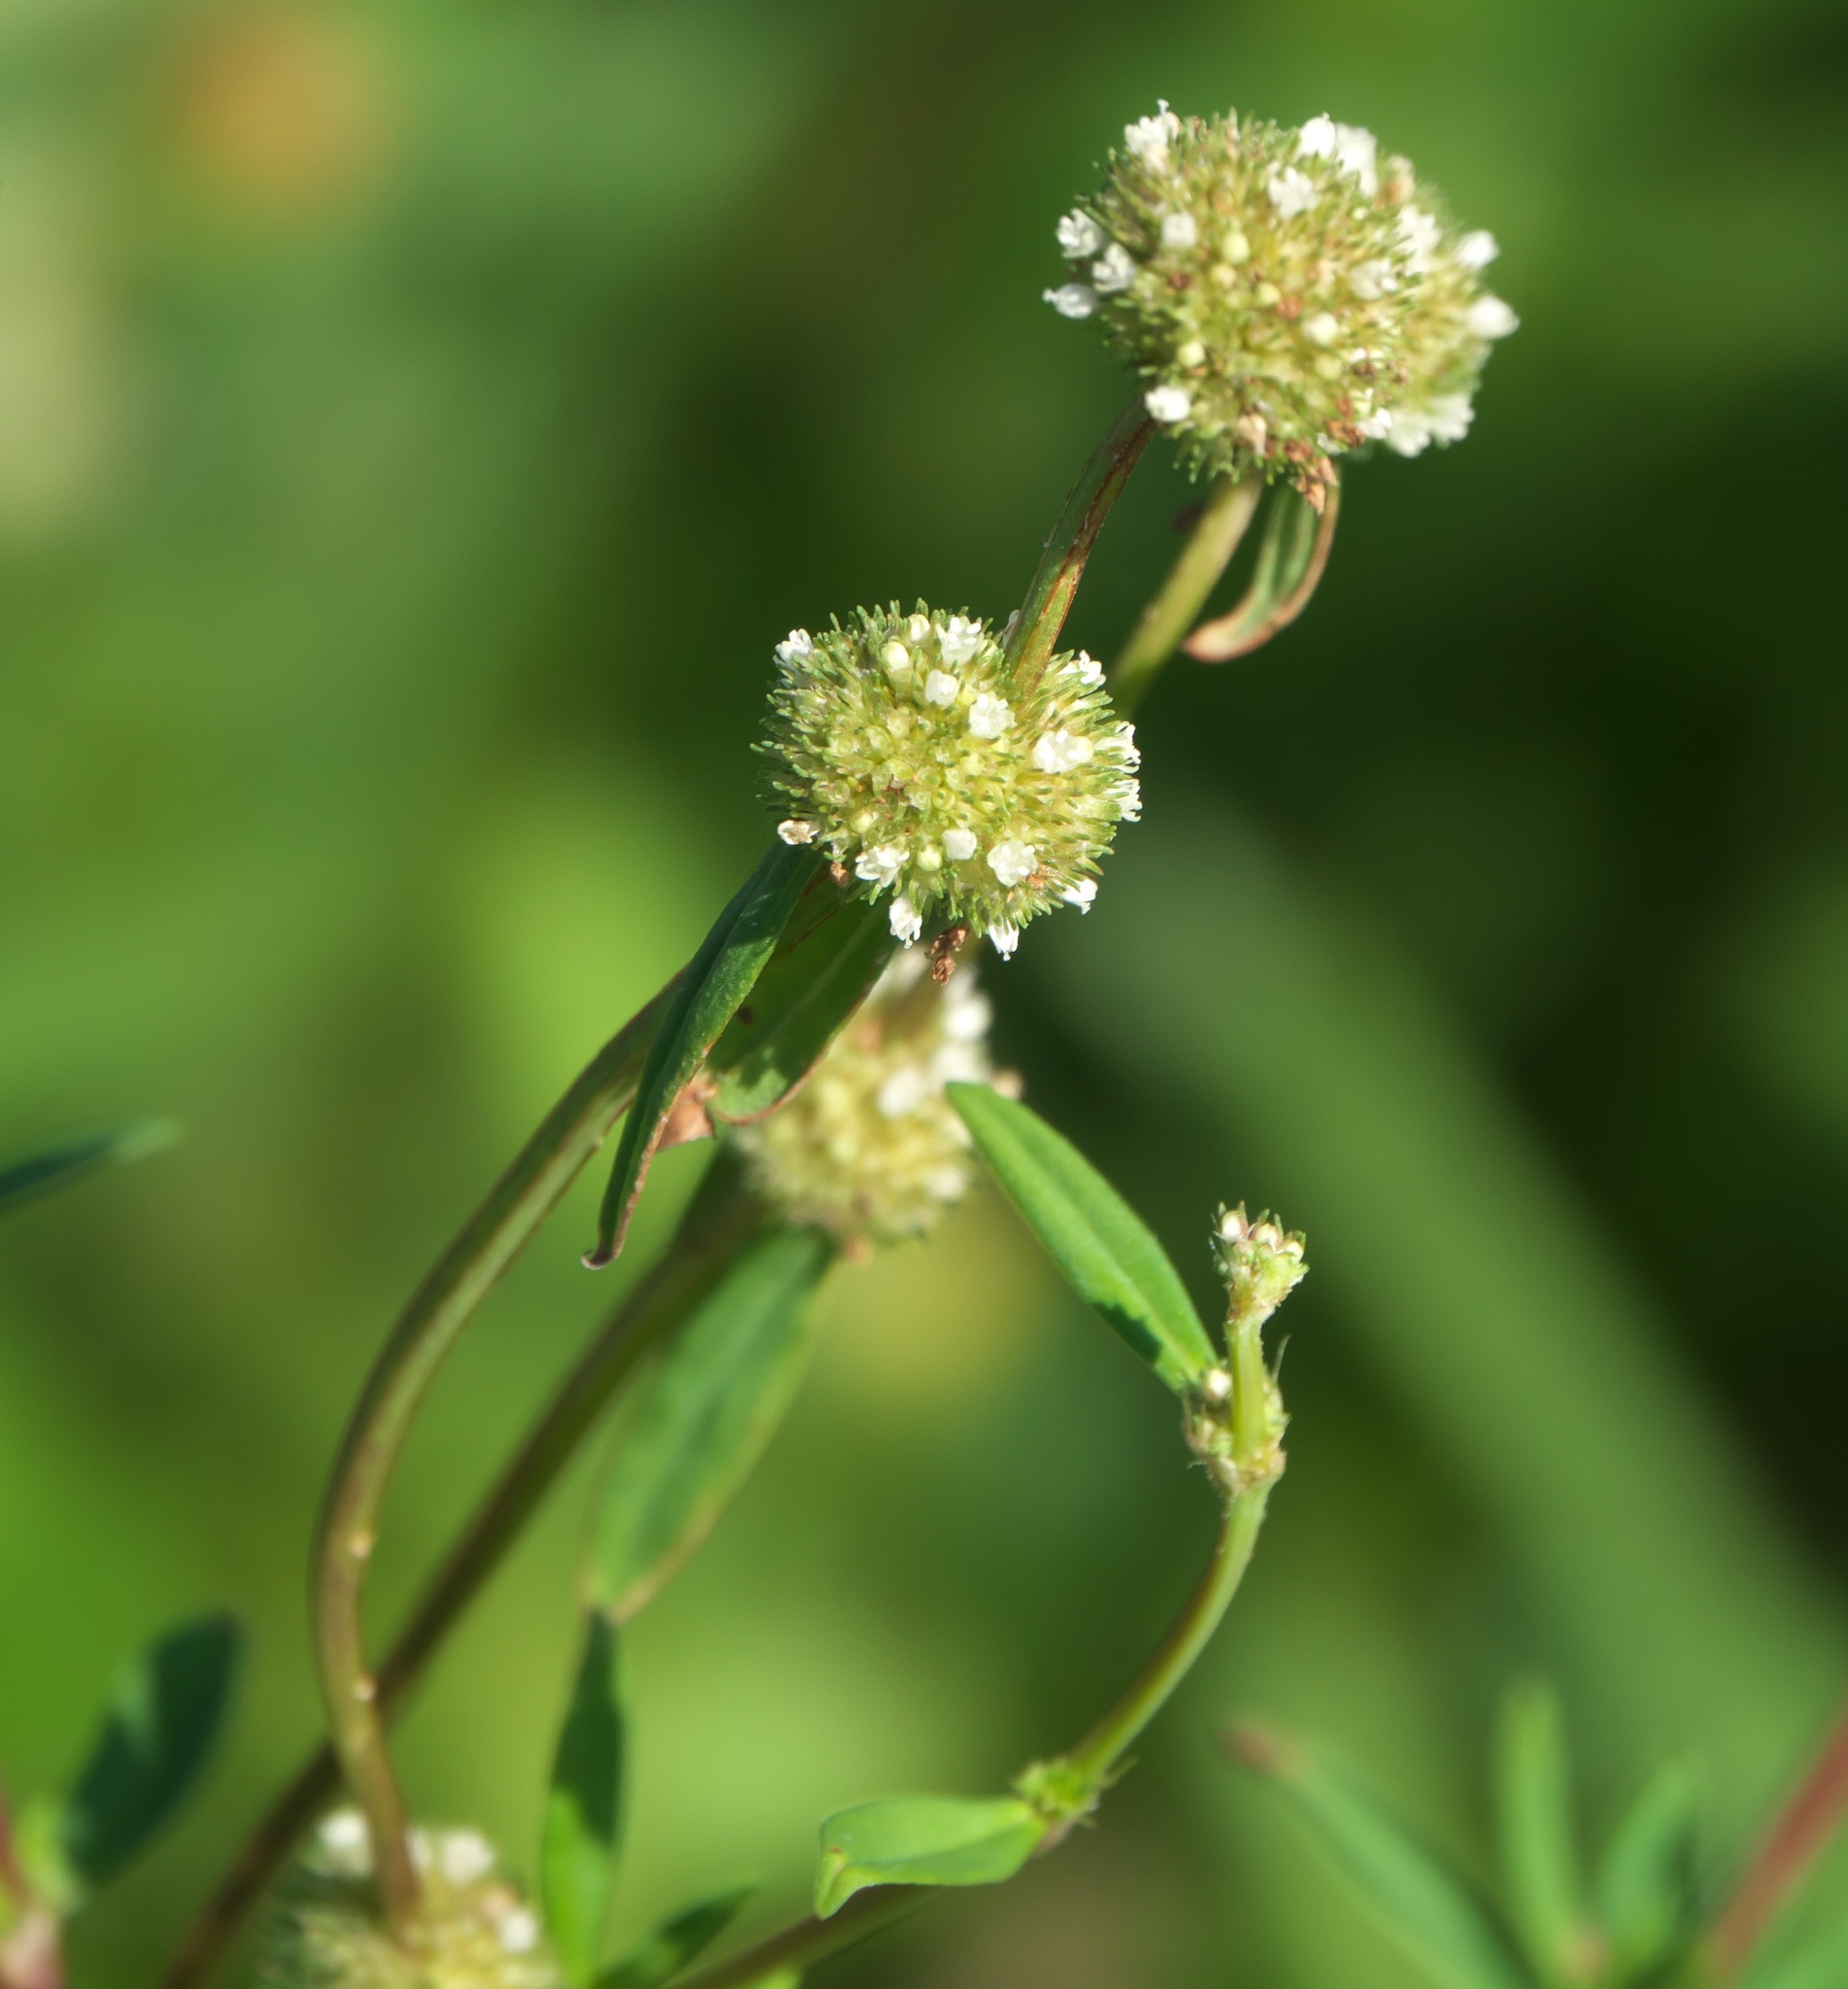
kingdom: Plantae
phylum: Tracheophyta
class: Magnoliopsida
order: Gentianales
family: Rubiaceae
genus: Spermacoce
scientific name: Spermacoce verticillata
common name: Shrubby false buttonweed
